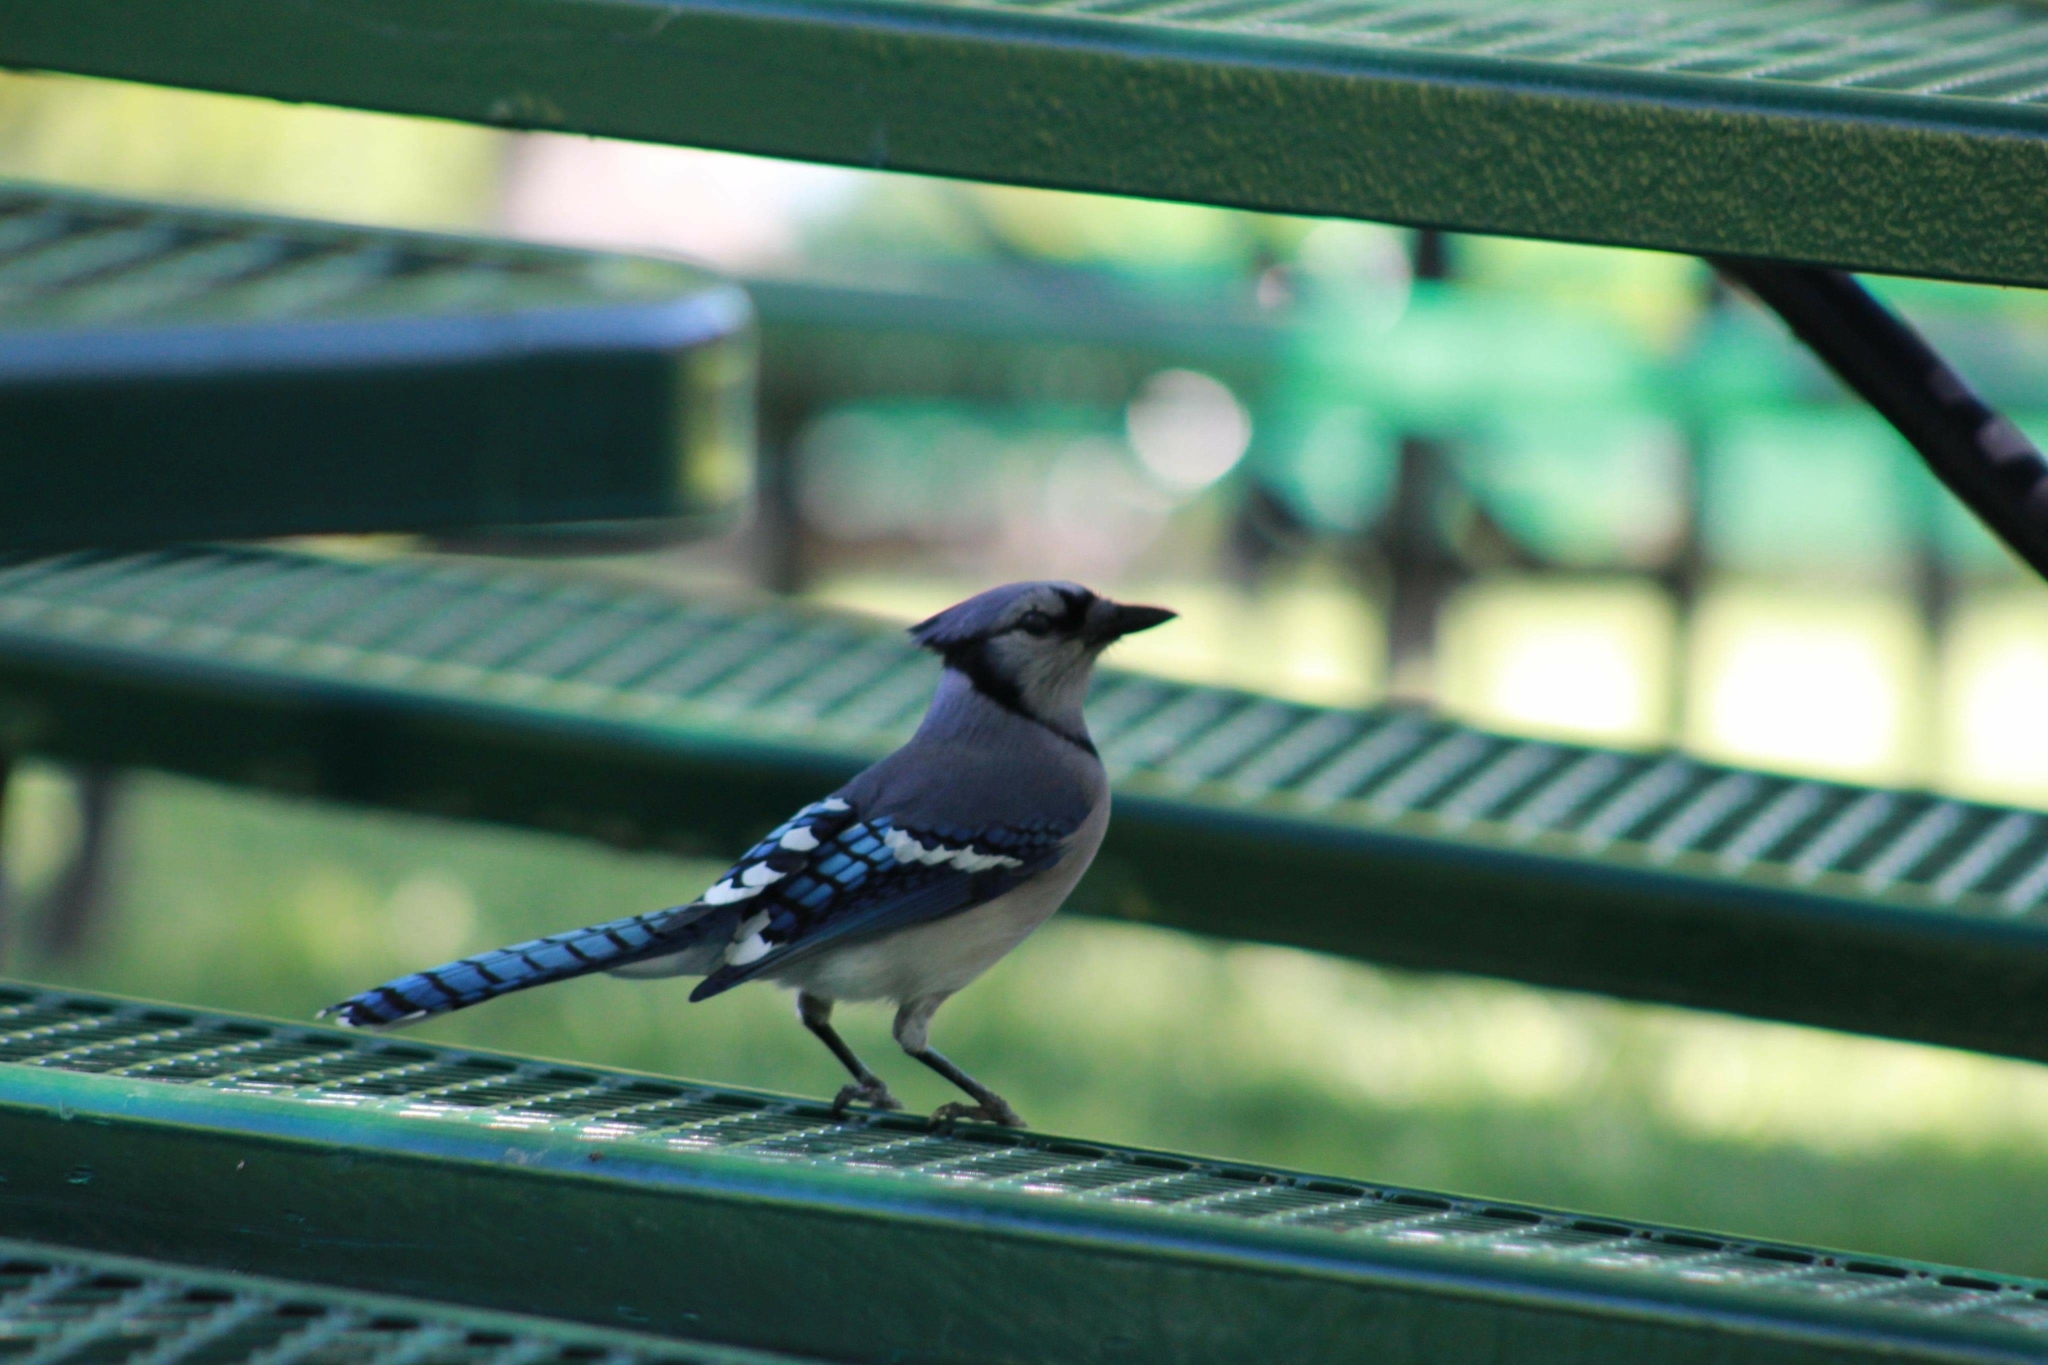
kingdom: Animalia
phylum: Chordata
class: Aves
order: Passeriformes
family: Corvidae
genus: Cyanocitta
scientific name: Cyanocitta cristata
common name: Blue jay
